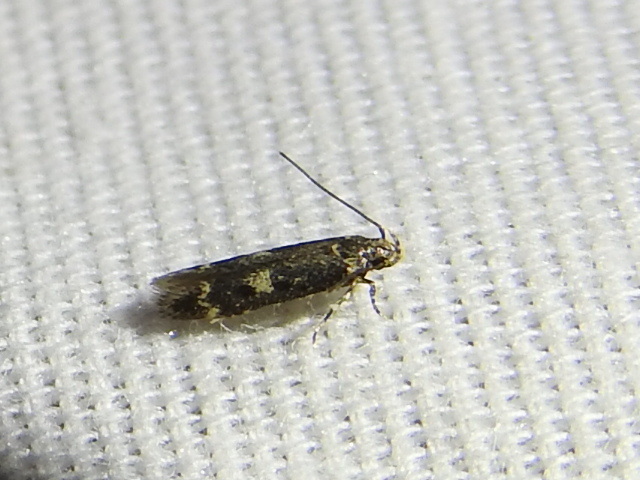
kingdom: Animalia
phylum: Arthropoda
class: Insecta
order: Lepidoptera
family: Gelechiidae
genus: Trypanisma
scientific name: Trypanisma prudens
